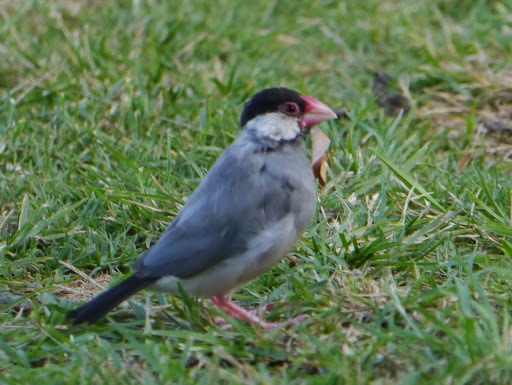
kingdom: Animalia
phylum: Chordata
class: Aves
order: Passeriformes
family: Estrildidae
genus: Lonchura
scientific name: Lonchura oryzivora
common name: Java sparrow
